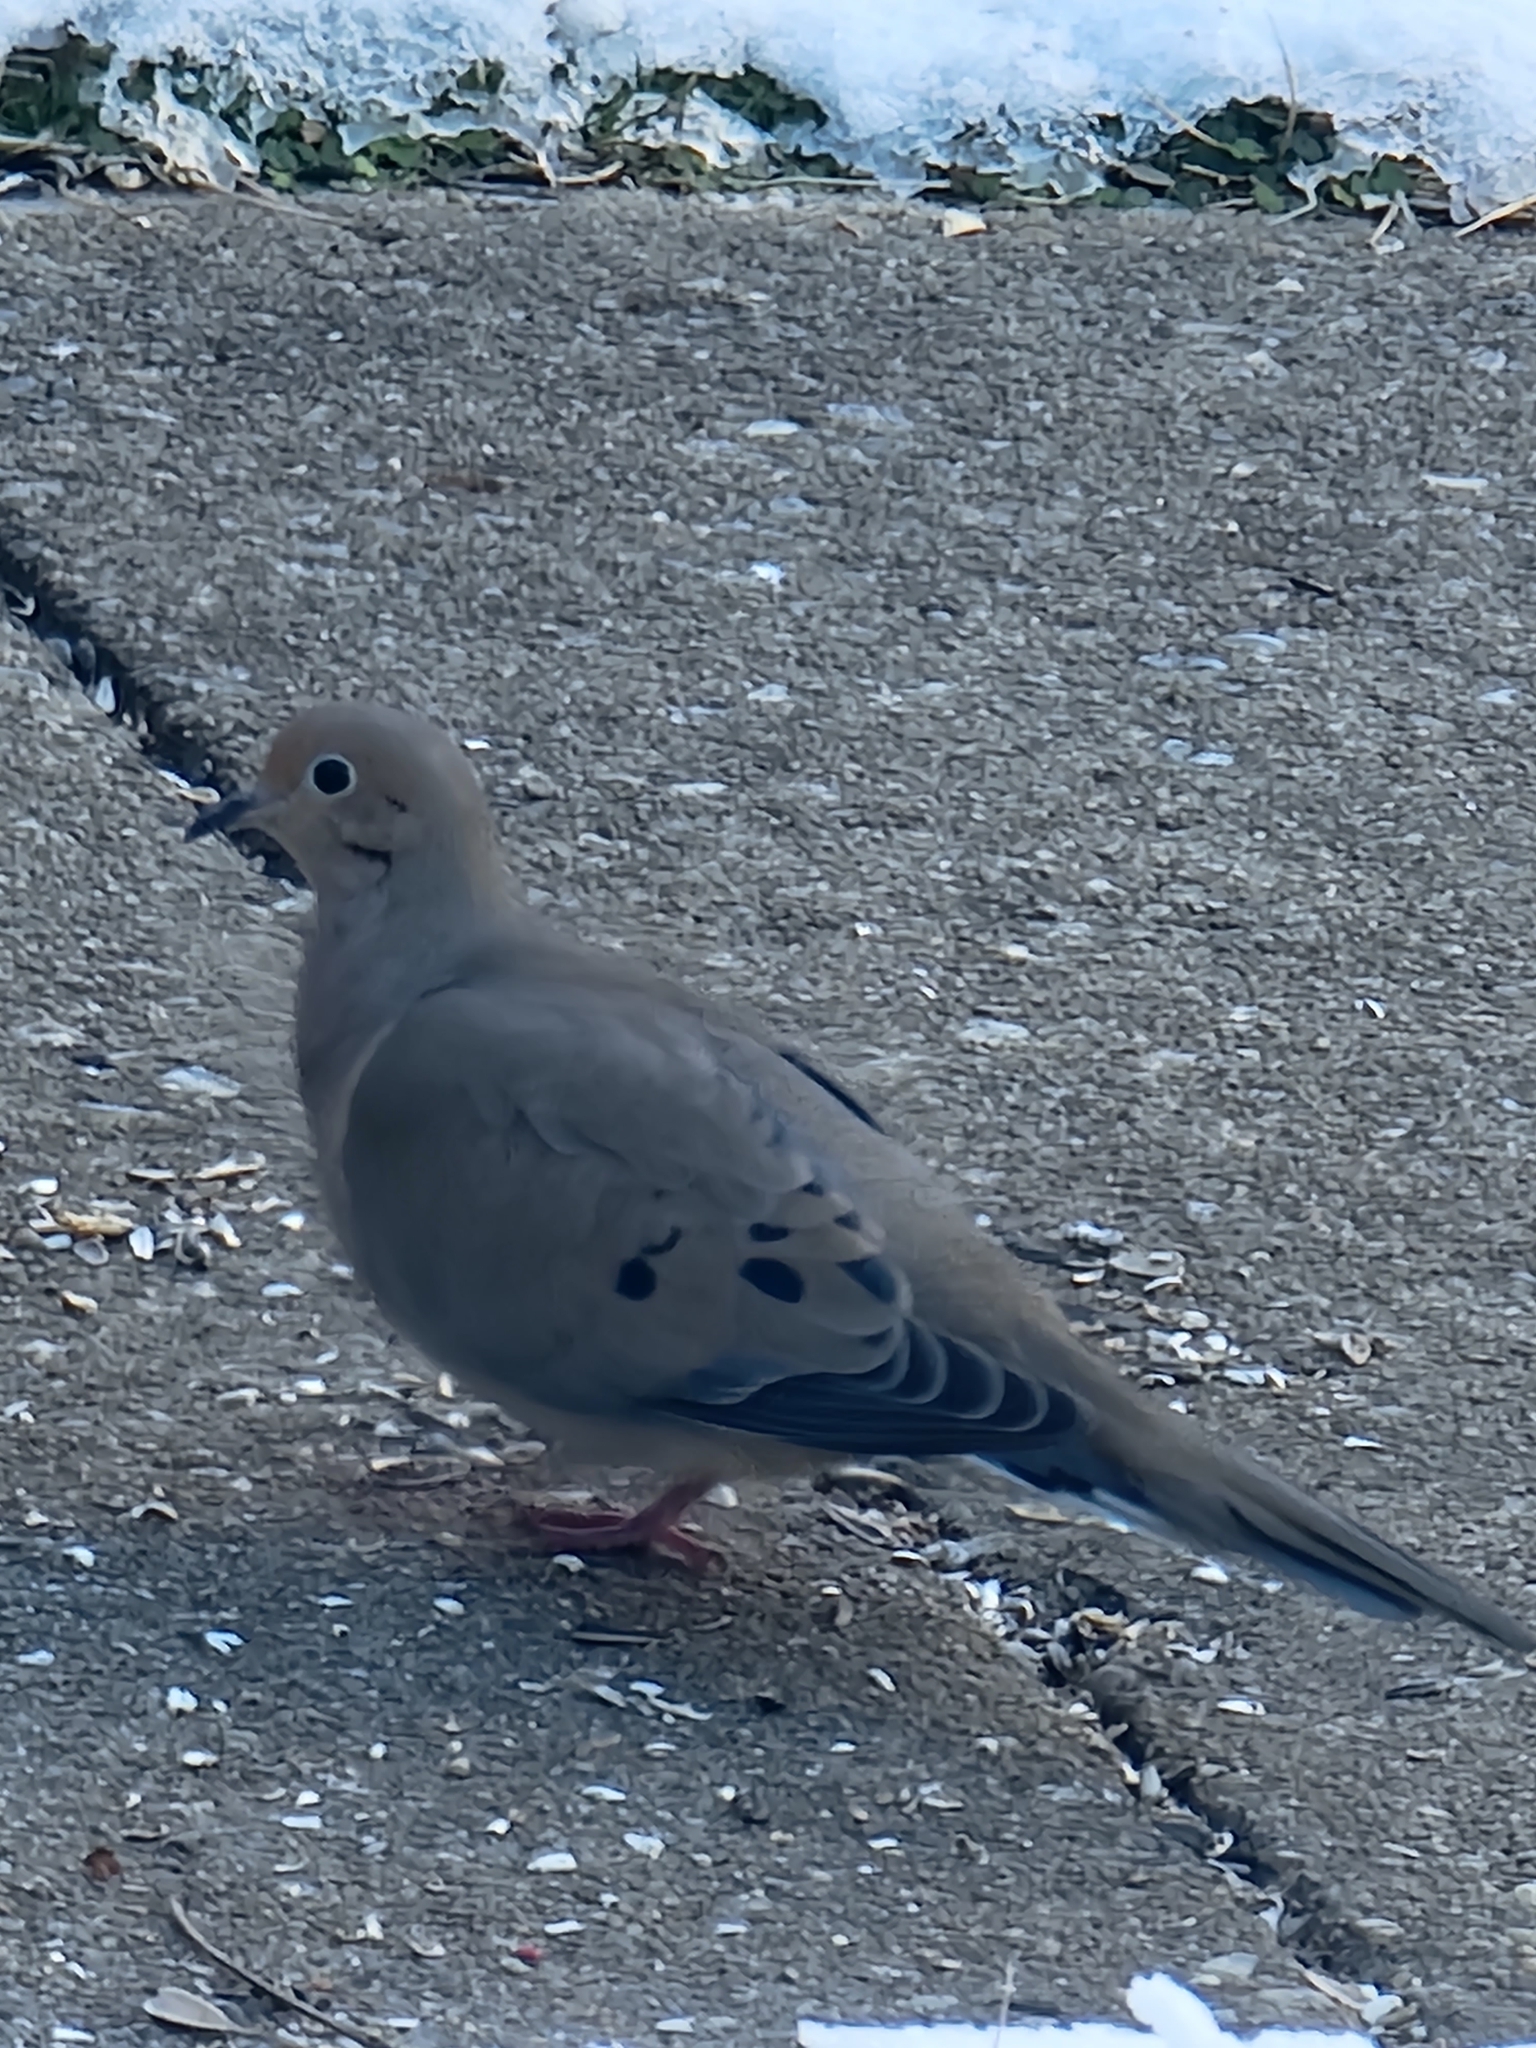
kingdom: Animalia
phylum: Chordata
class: Aves
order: Columbiformes
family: Columbidae
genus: Zenaida
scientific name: Zenaida macroura
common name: Mourning dove
